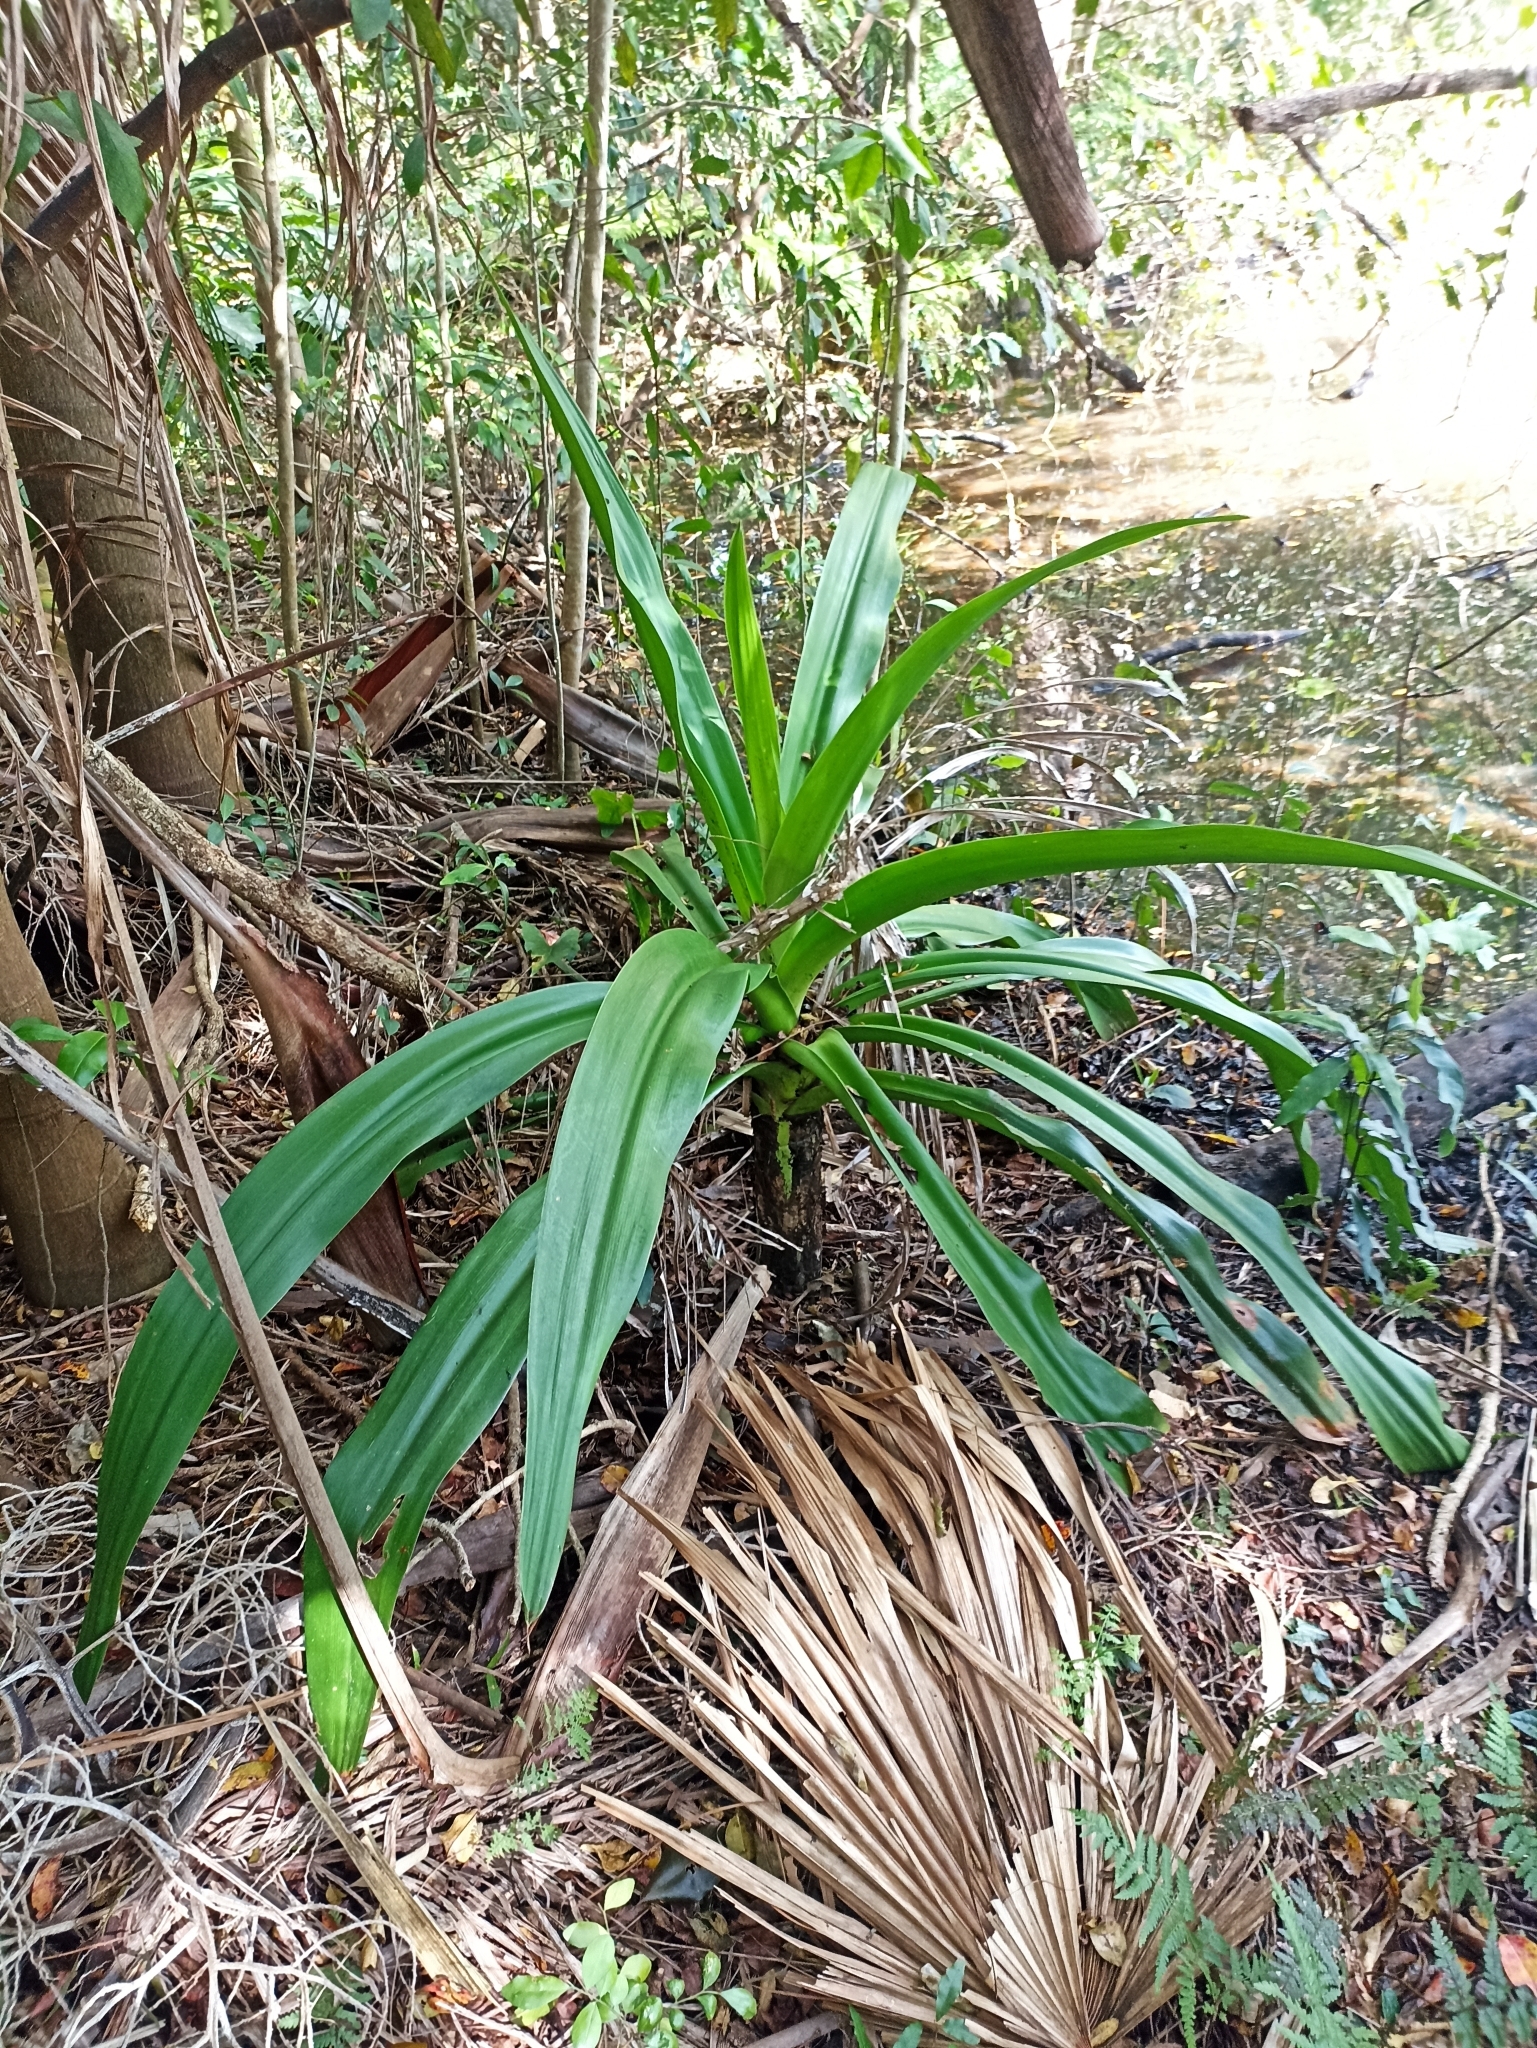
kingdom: Plantae
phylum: Tracheophyta
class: Liliopsida
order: Asparagales
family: Amaryllidaceae
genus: Crinum
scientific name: Crinum pedunculatum
